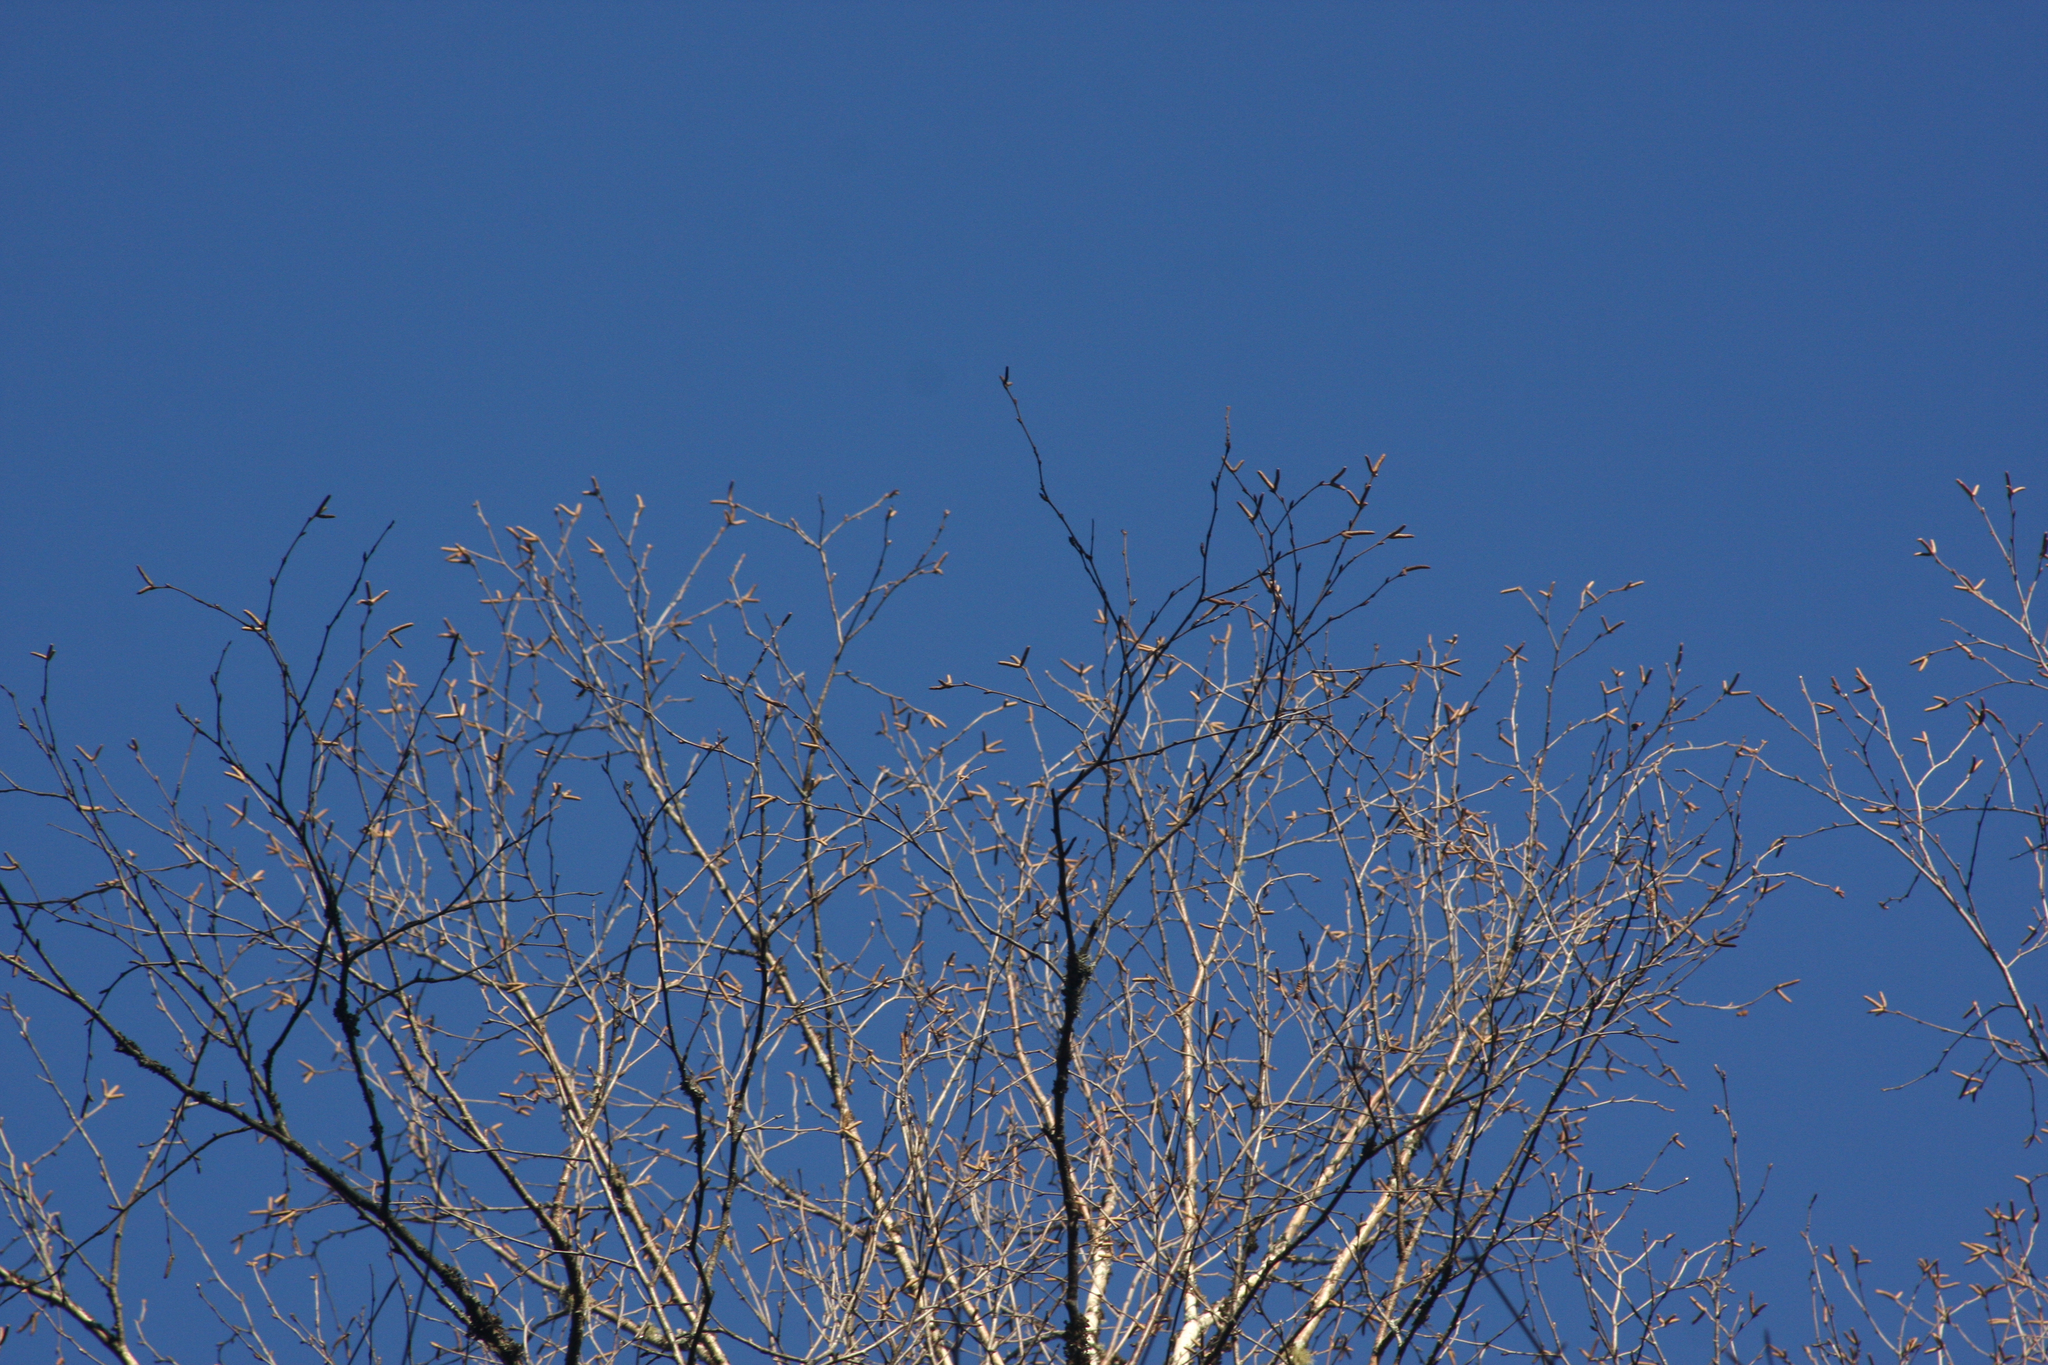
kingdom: Plantae
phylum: Tracheophyta
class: Magnoliopsida
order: Fagales
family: Betulaceae
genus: Betula
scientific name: Betula papyrifera
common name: Paper birch
